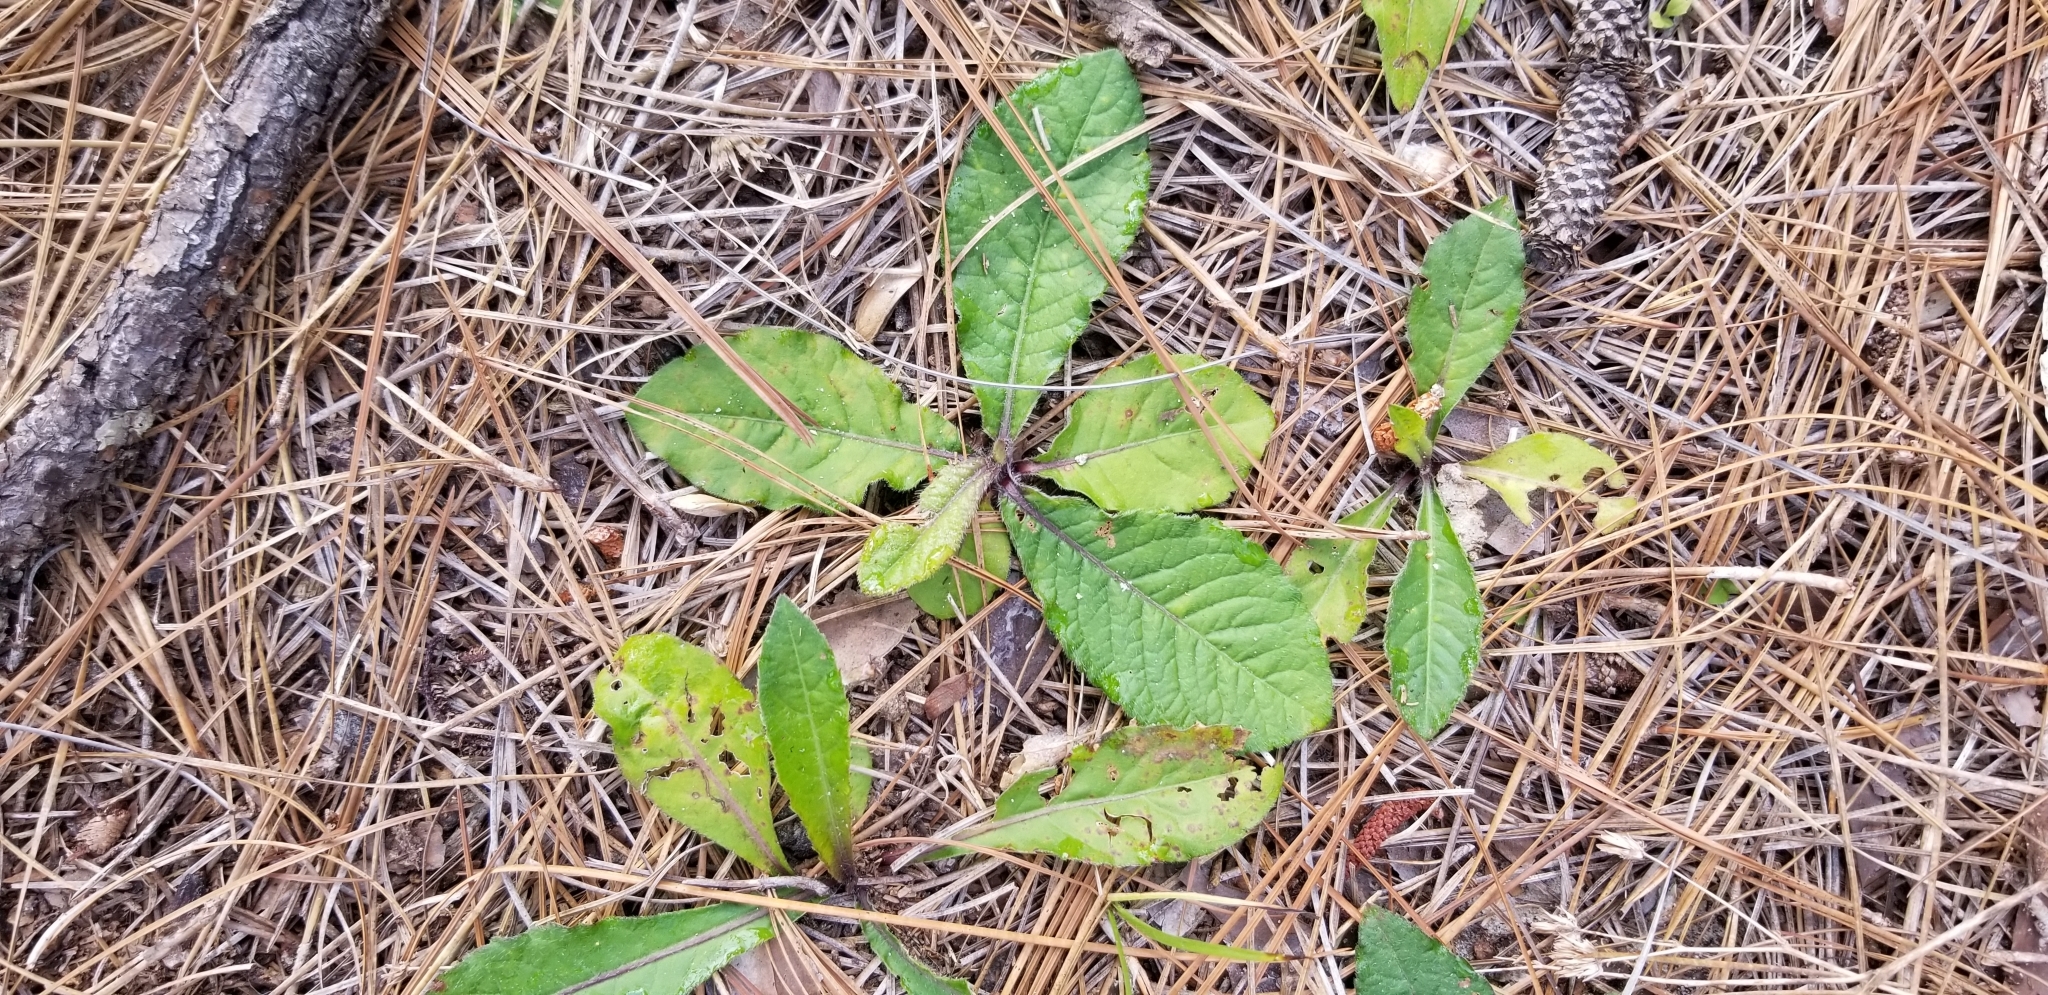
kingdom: Plantae
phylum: Tracheophyta
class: Magnoliopsida
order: Asterales
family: Asteraceae
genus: Elephantopus
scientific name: Elephantopus tomentosus
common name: Tobacco-weed
